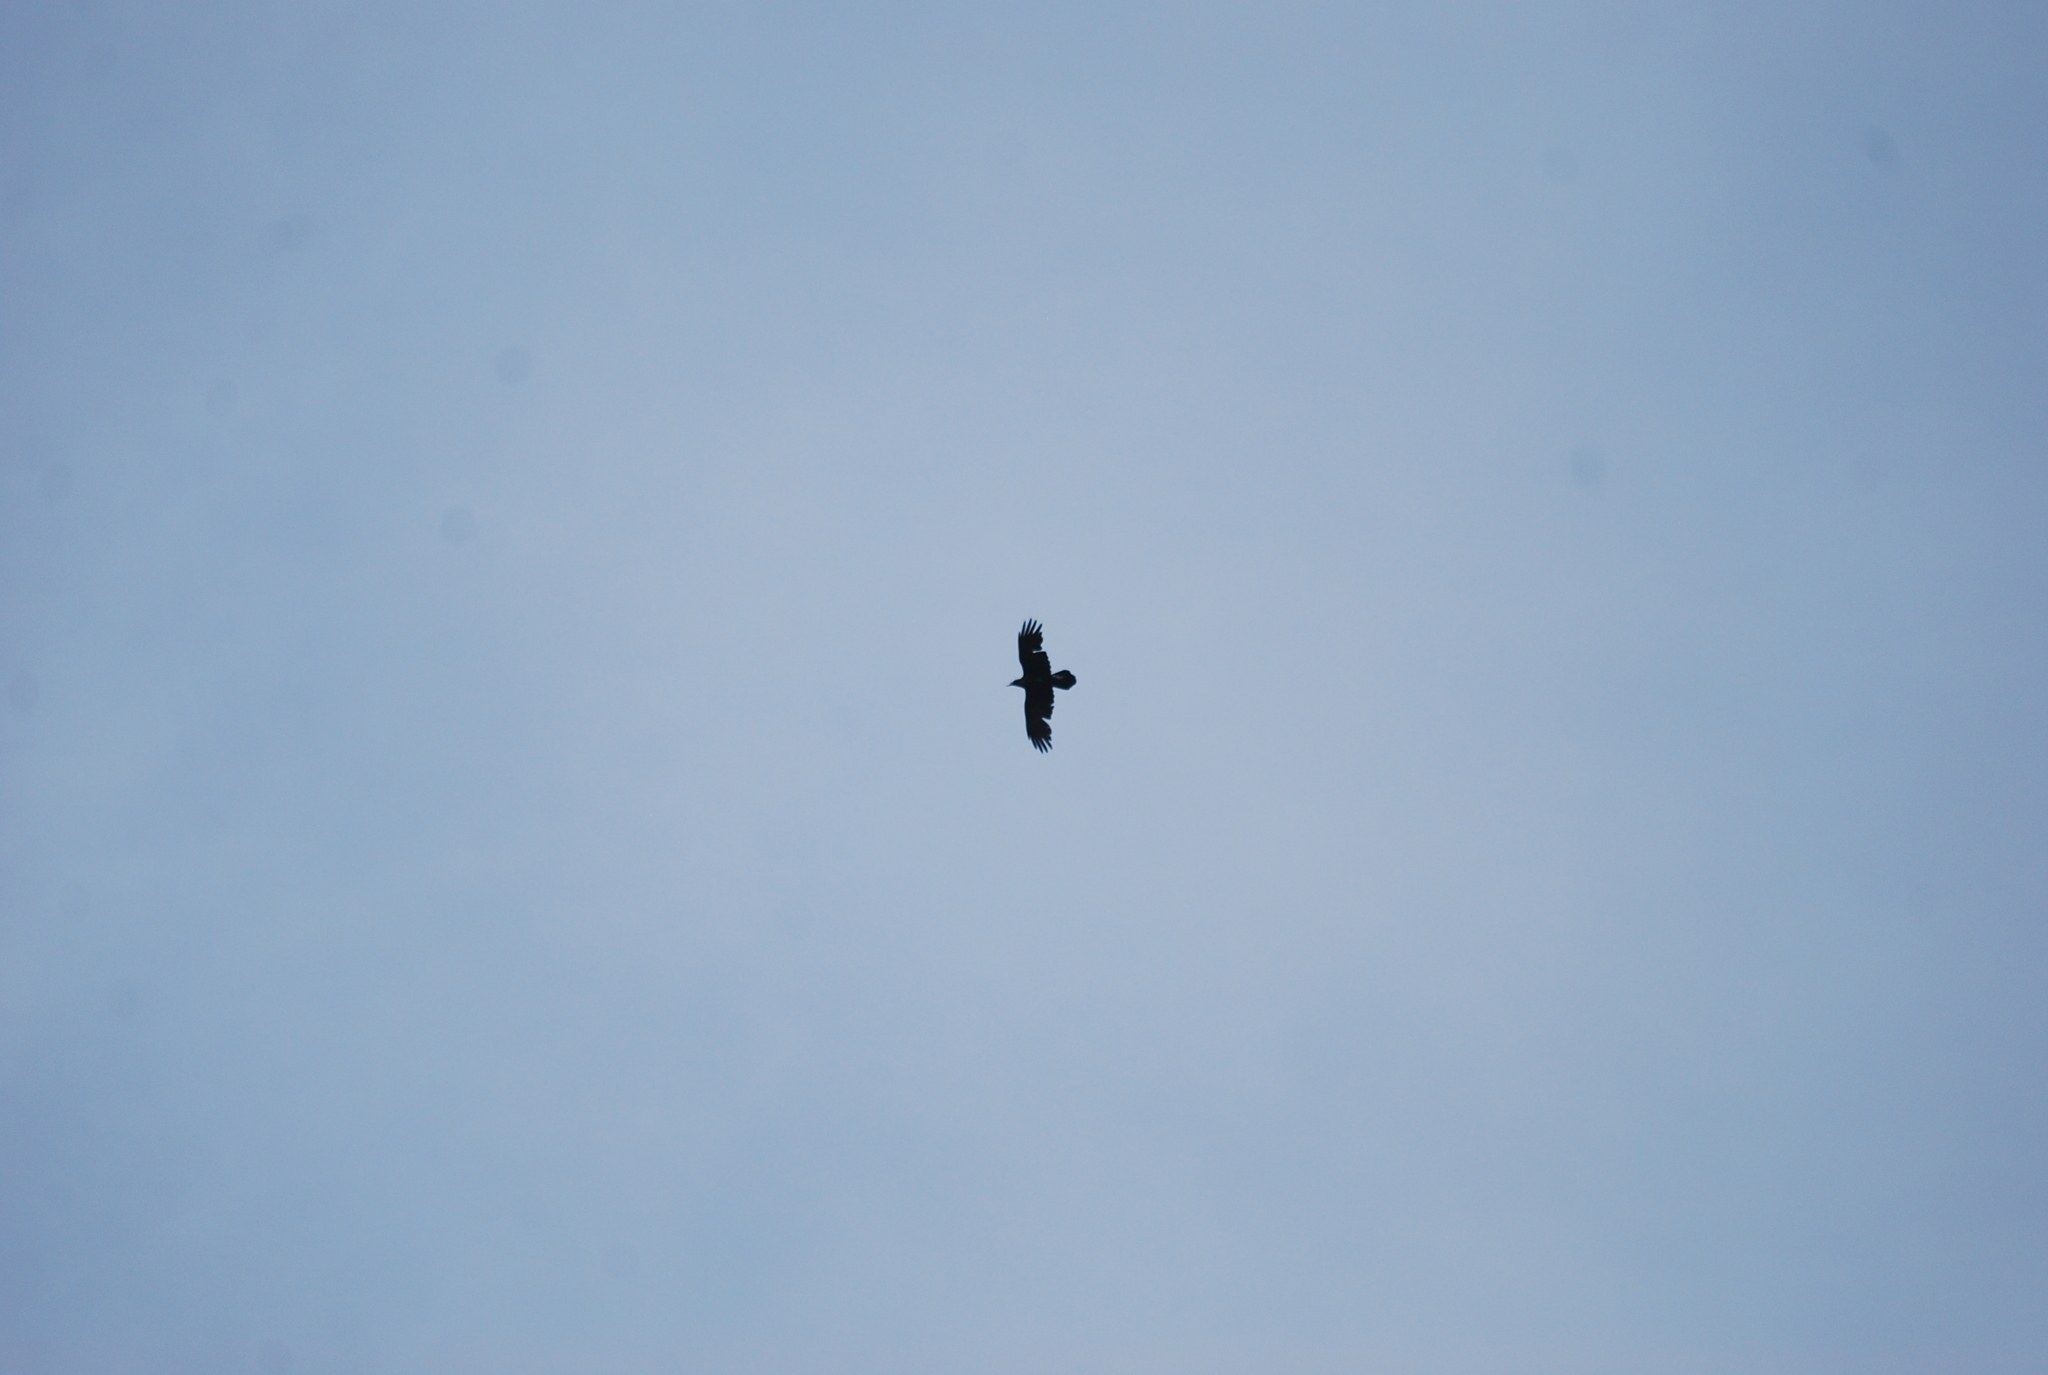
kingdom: Animalia
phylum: Chordata
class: Aves
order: Passeriformes
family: Corvidae
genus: Corvus
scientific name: Corvus corax
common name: Common raven
